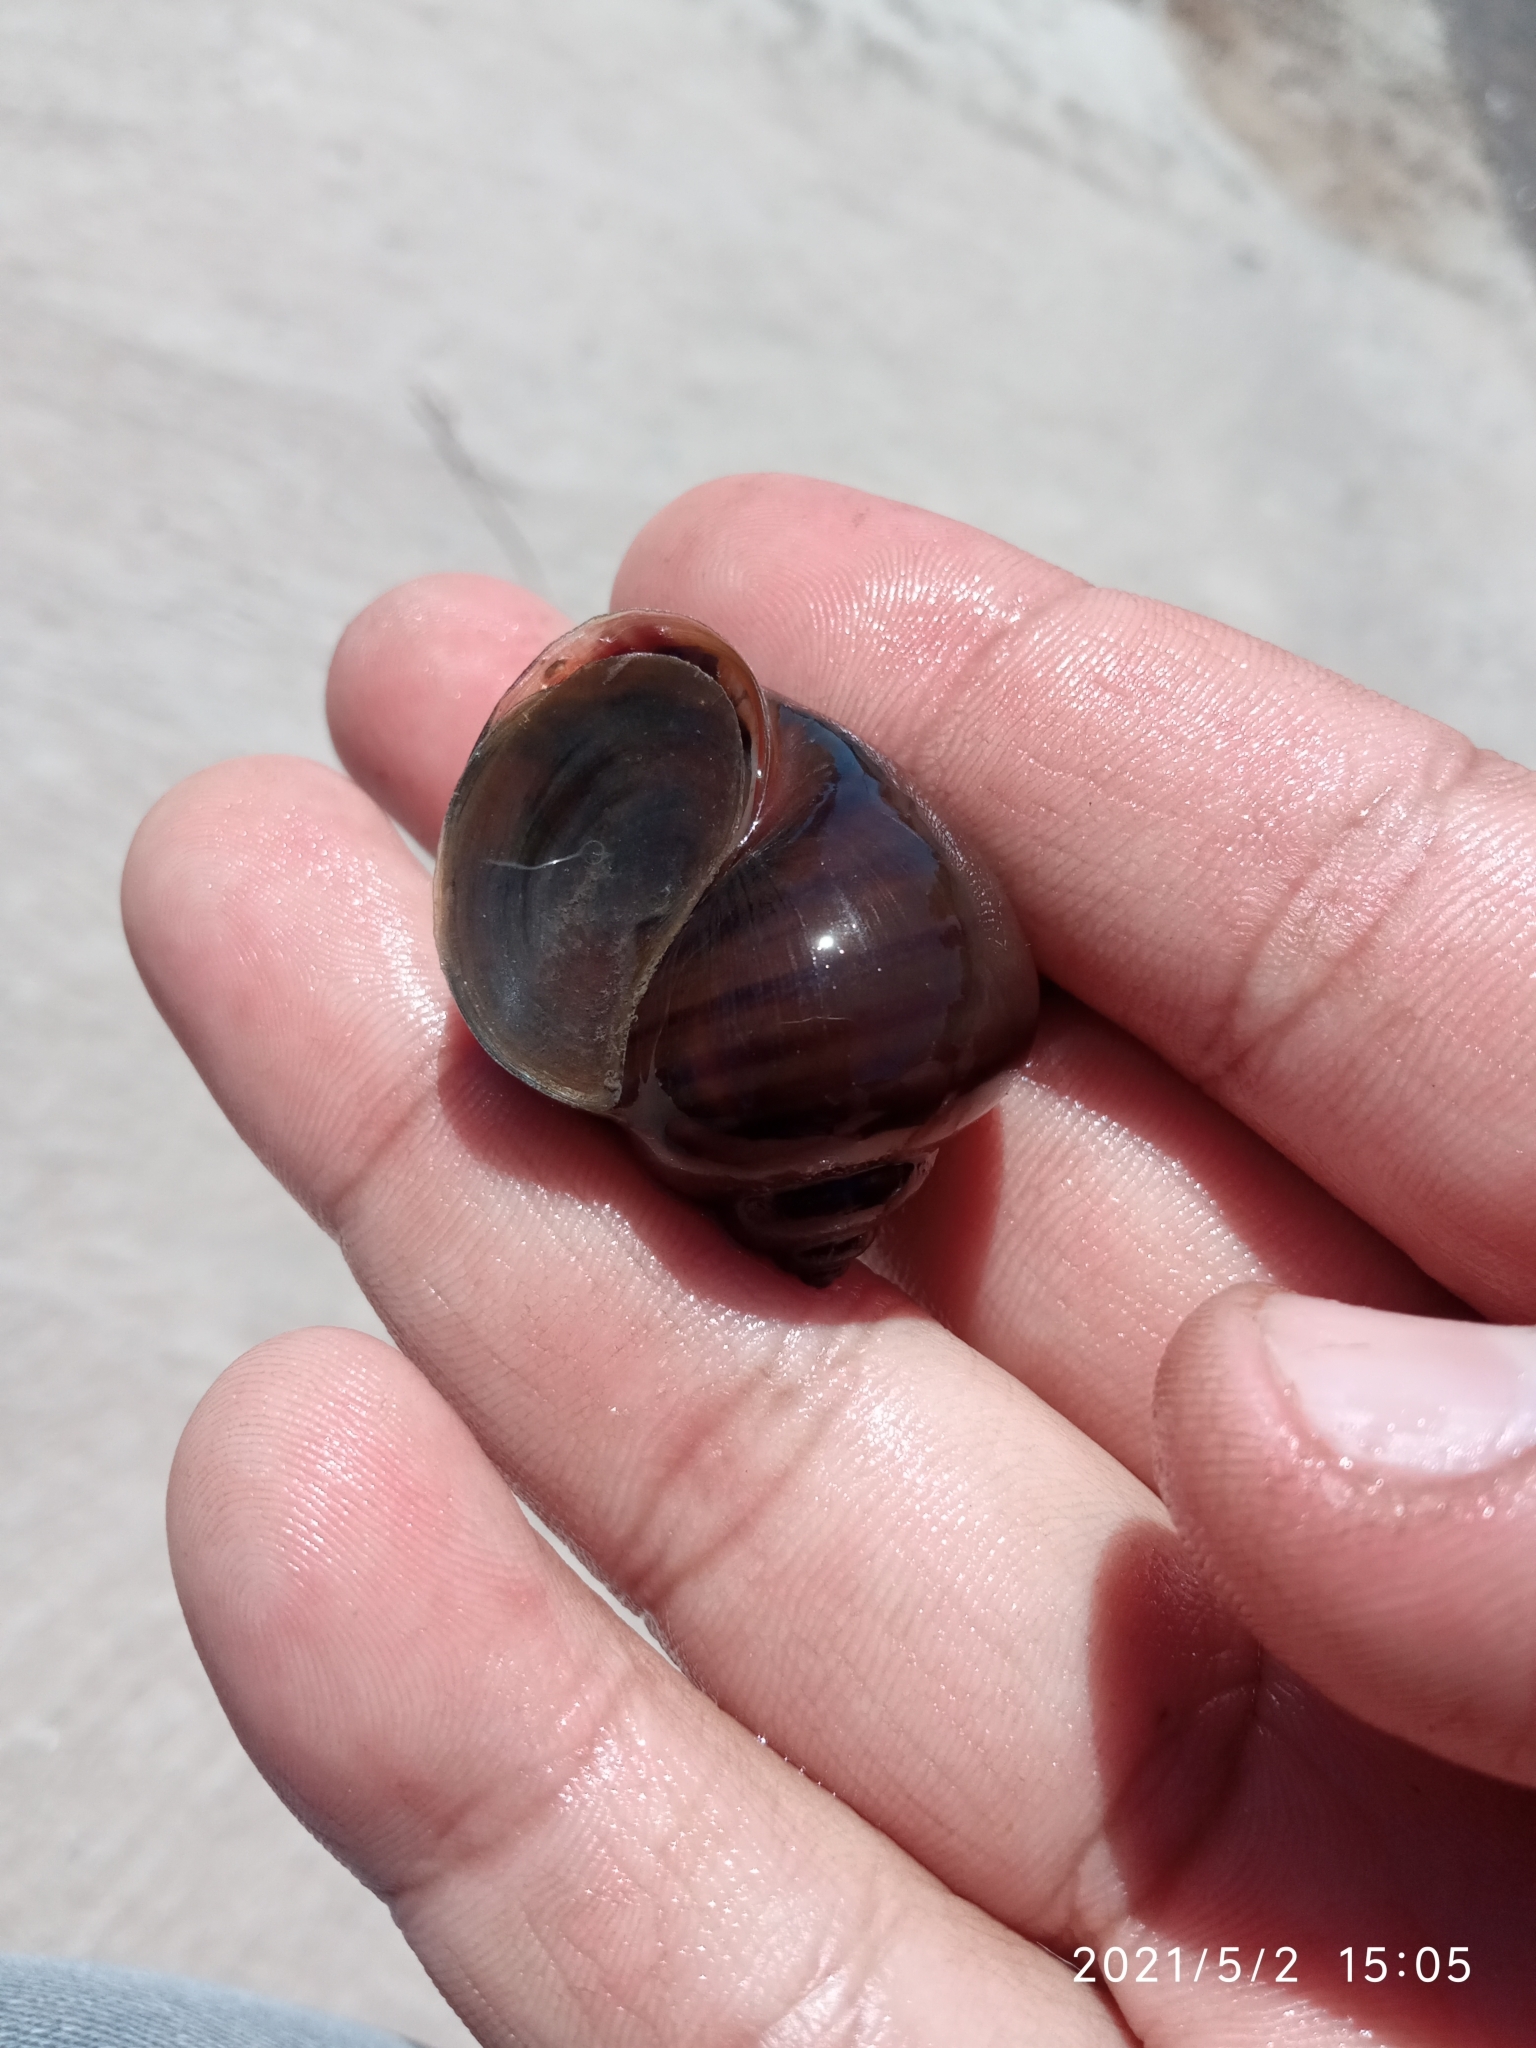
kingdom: Animalia
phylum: Mollusca
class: Gastropoda
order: Architaenioglossa
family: Ampullariidae
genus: Pomacea
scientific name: Pomacea maculata
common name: Giant applesnail
